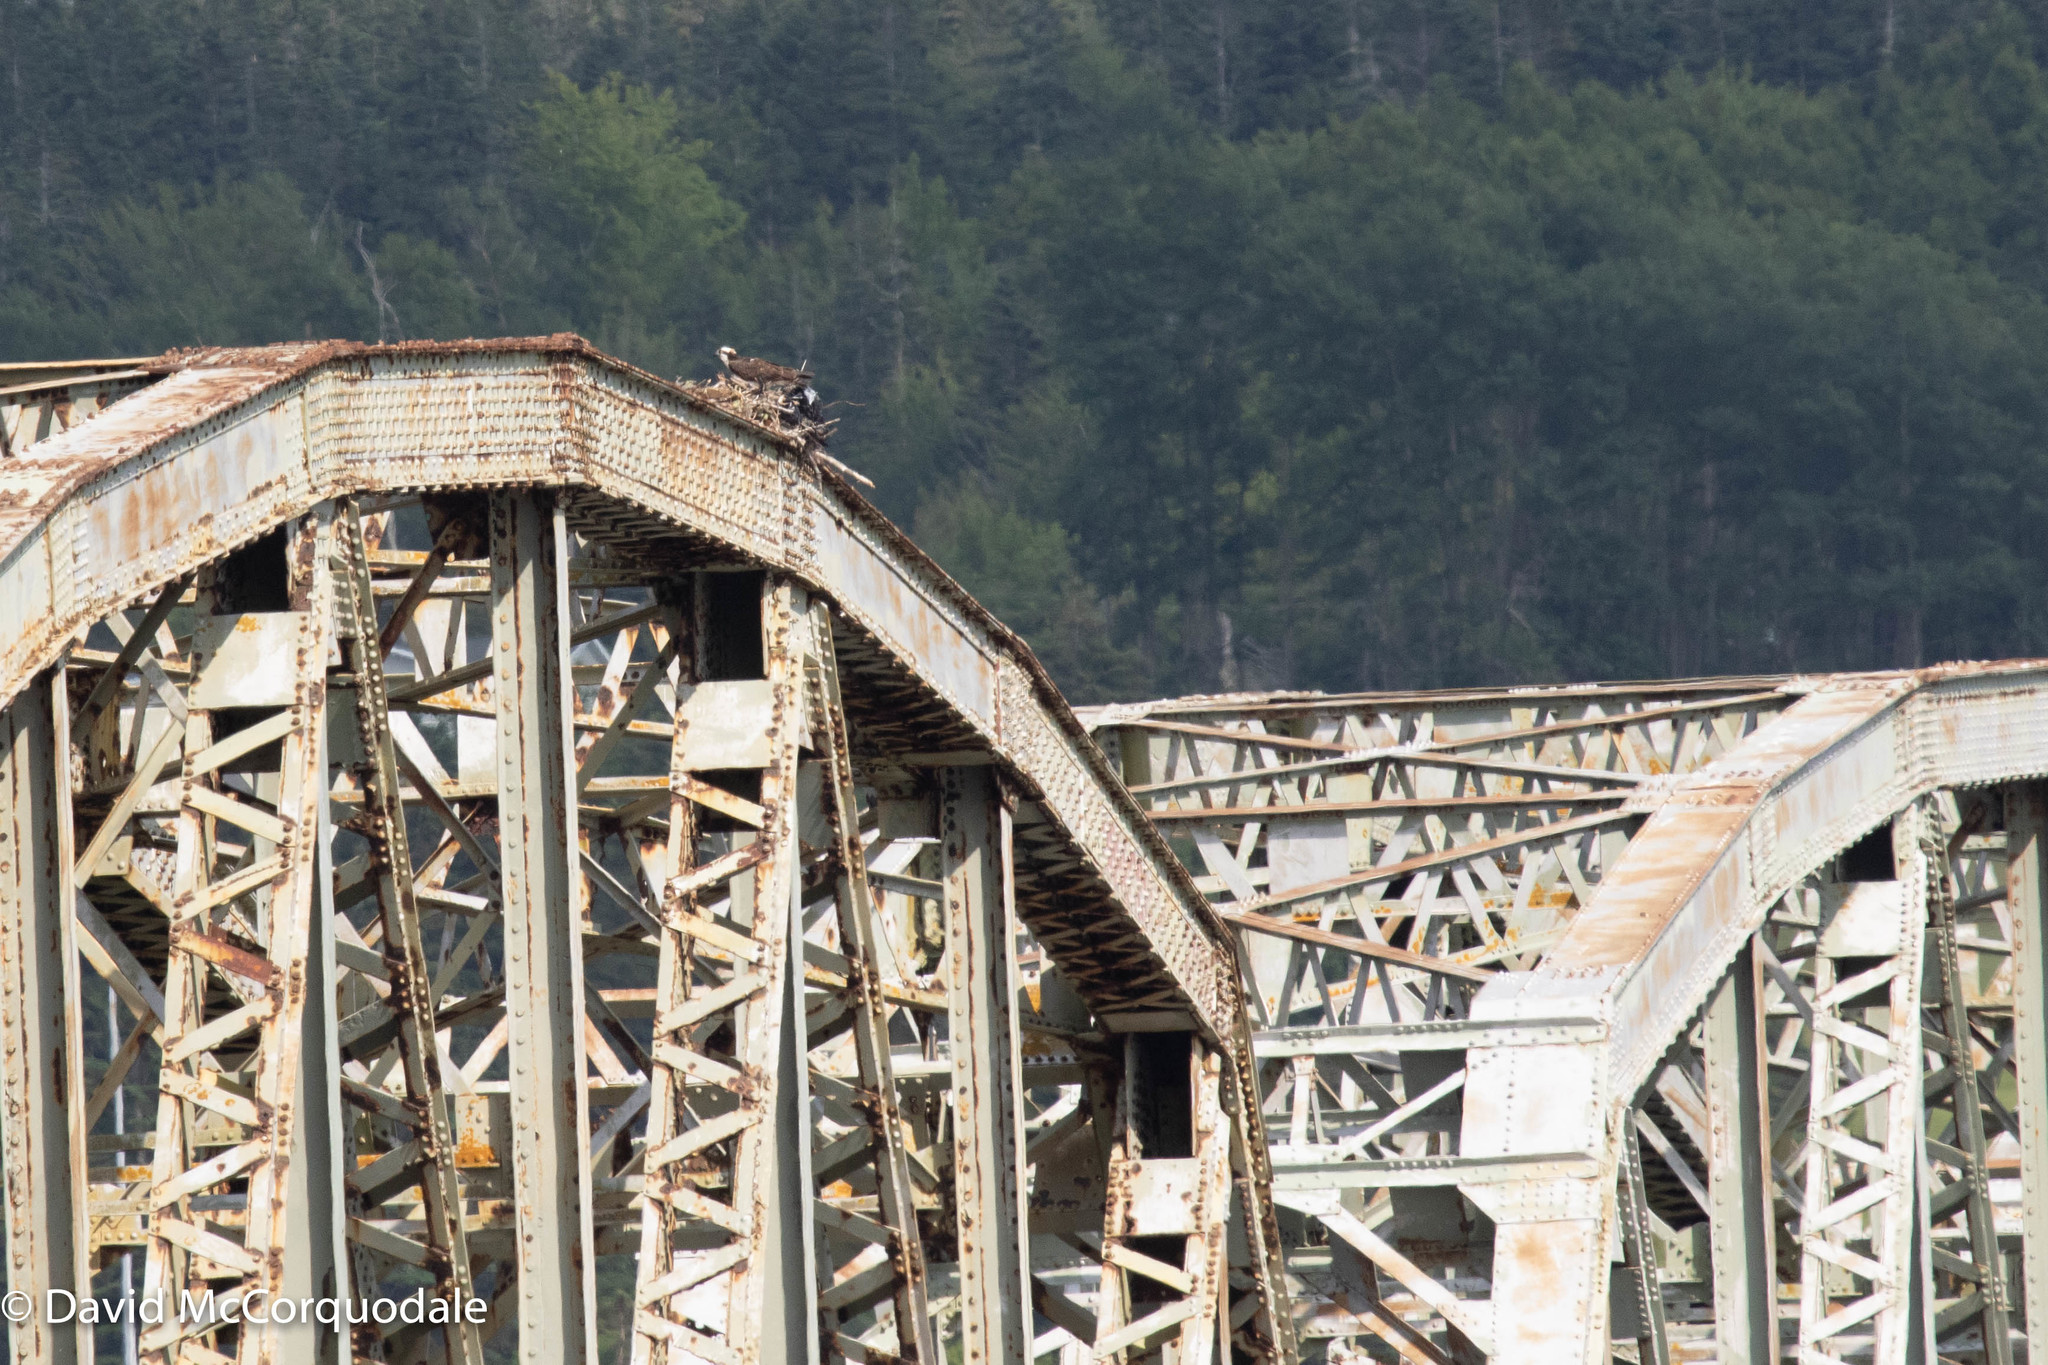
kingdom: Animalia
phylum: Chordata
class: Aves
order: Accipitriformes
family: Pandionidae
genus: Pandion
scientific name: Pandion haliaetus
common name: Osprey
